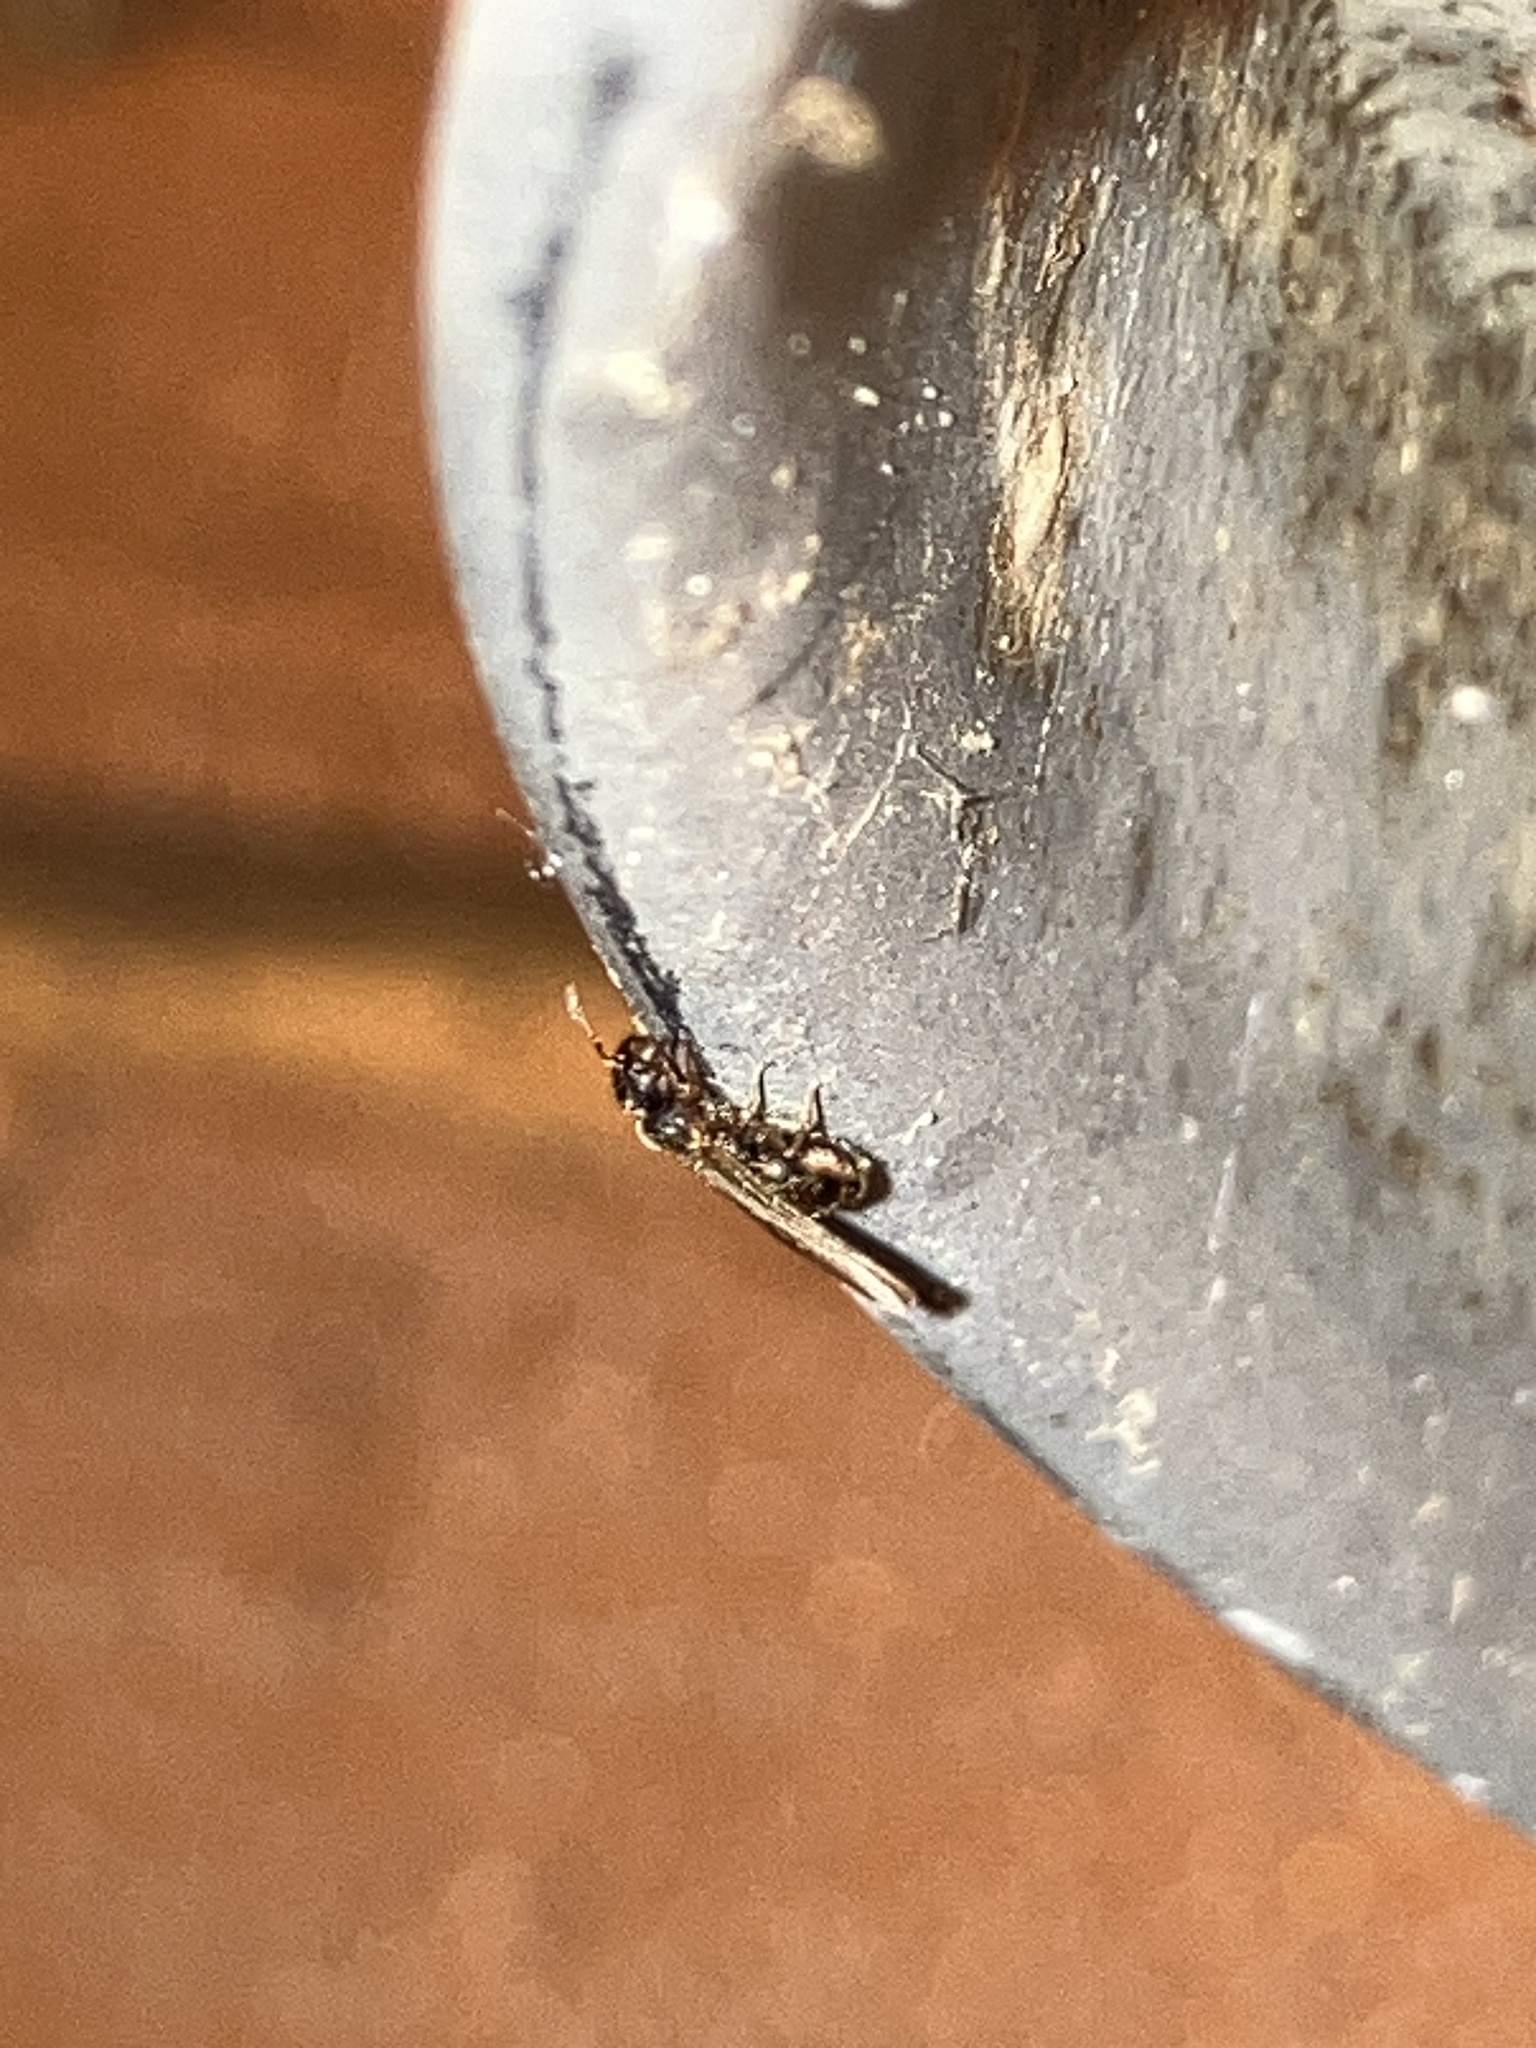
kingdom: Animalia
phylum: Arthropoda
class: Insecta
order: Hymenoptera
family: Formicidae
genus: Pheidole
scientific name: Pheidole navigans
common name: Navigating big-headed ant
